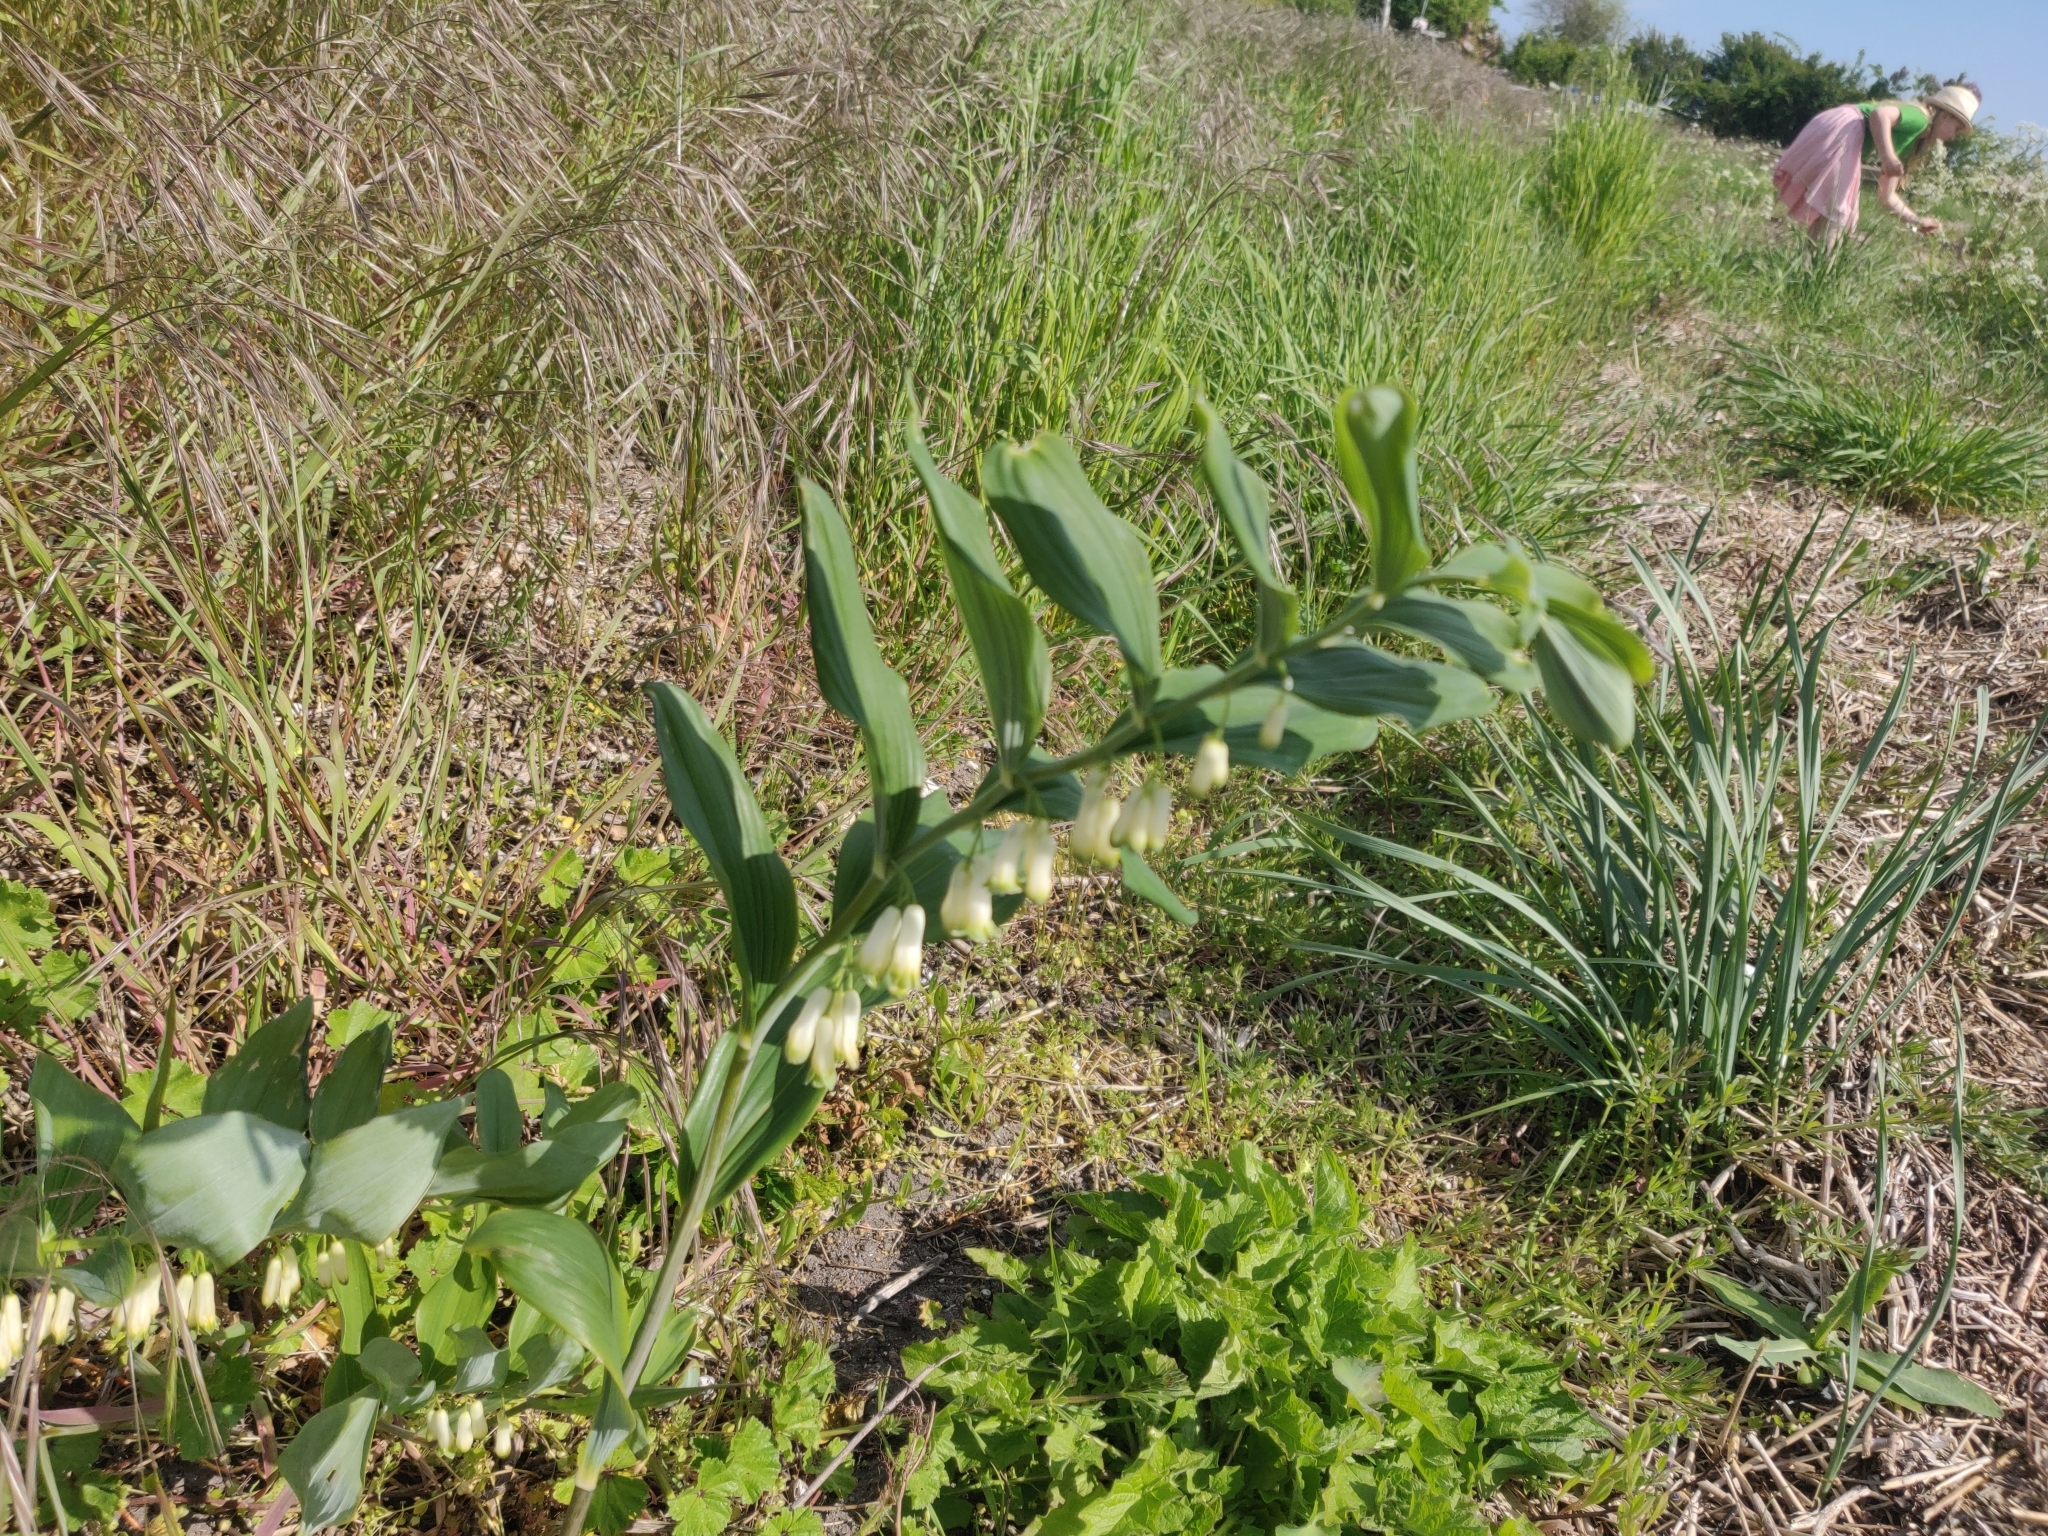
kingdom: Plantae
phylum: Tracheophyta
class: Liliopsida
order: Asparagales
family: Asparagaceae
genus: Polygonatum
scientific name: Polygonatum multiflorum
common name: Solomon's-seal
